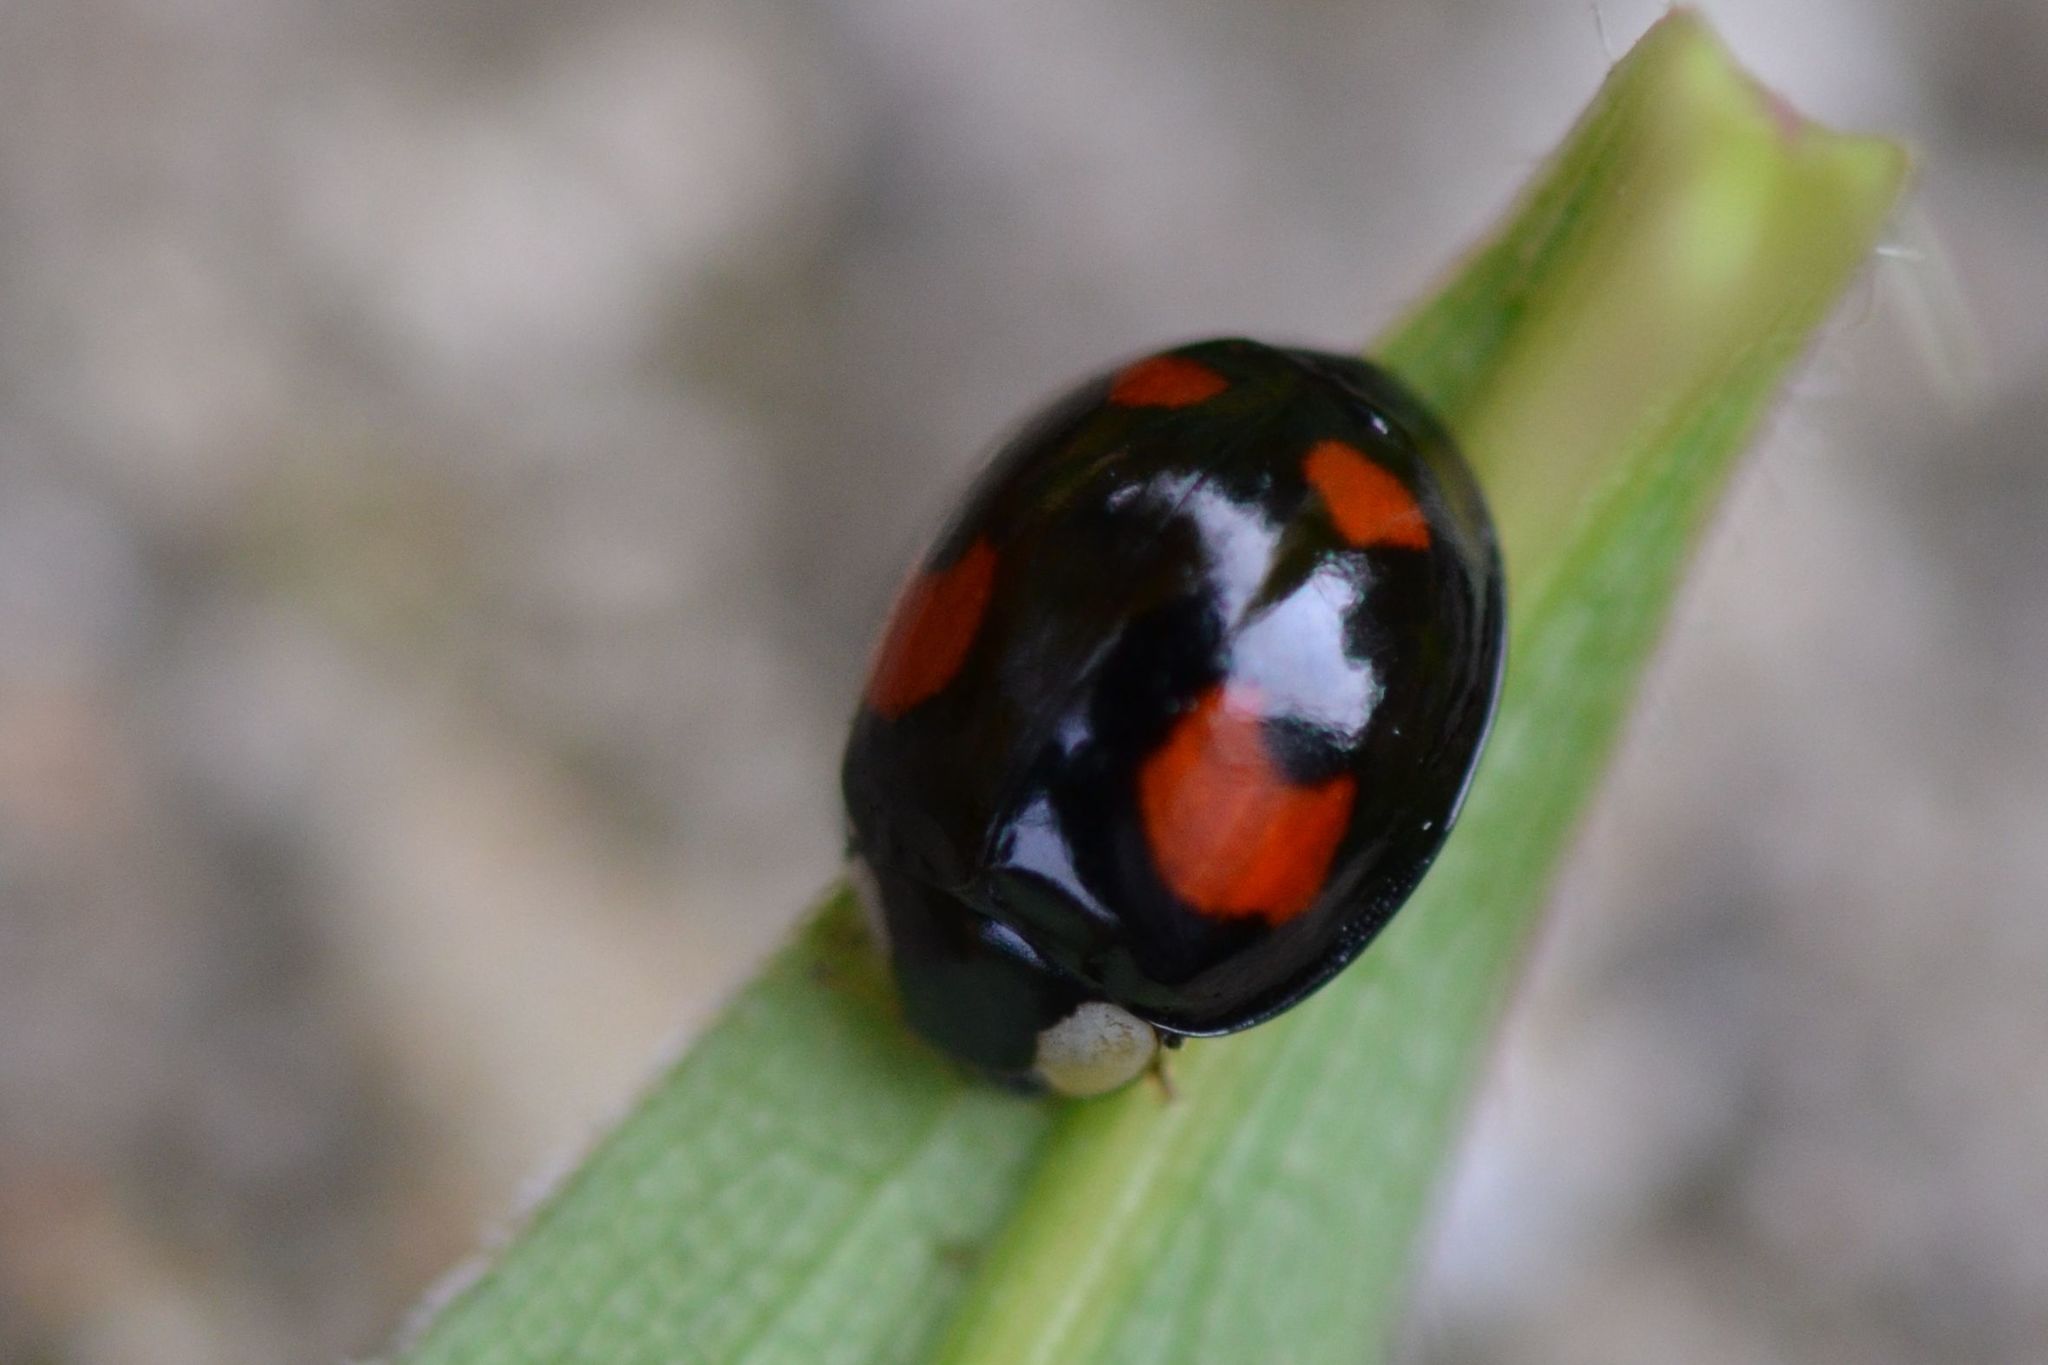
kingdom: Animalia
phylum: Arthropoda
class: Insecta
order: Coleoptera
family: Coccinellidae
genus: Harmonia
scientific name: Harmonia axyridis
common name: Harlequin ladybird
